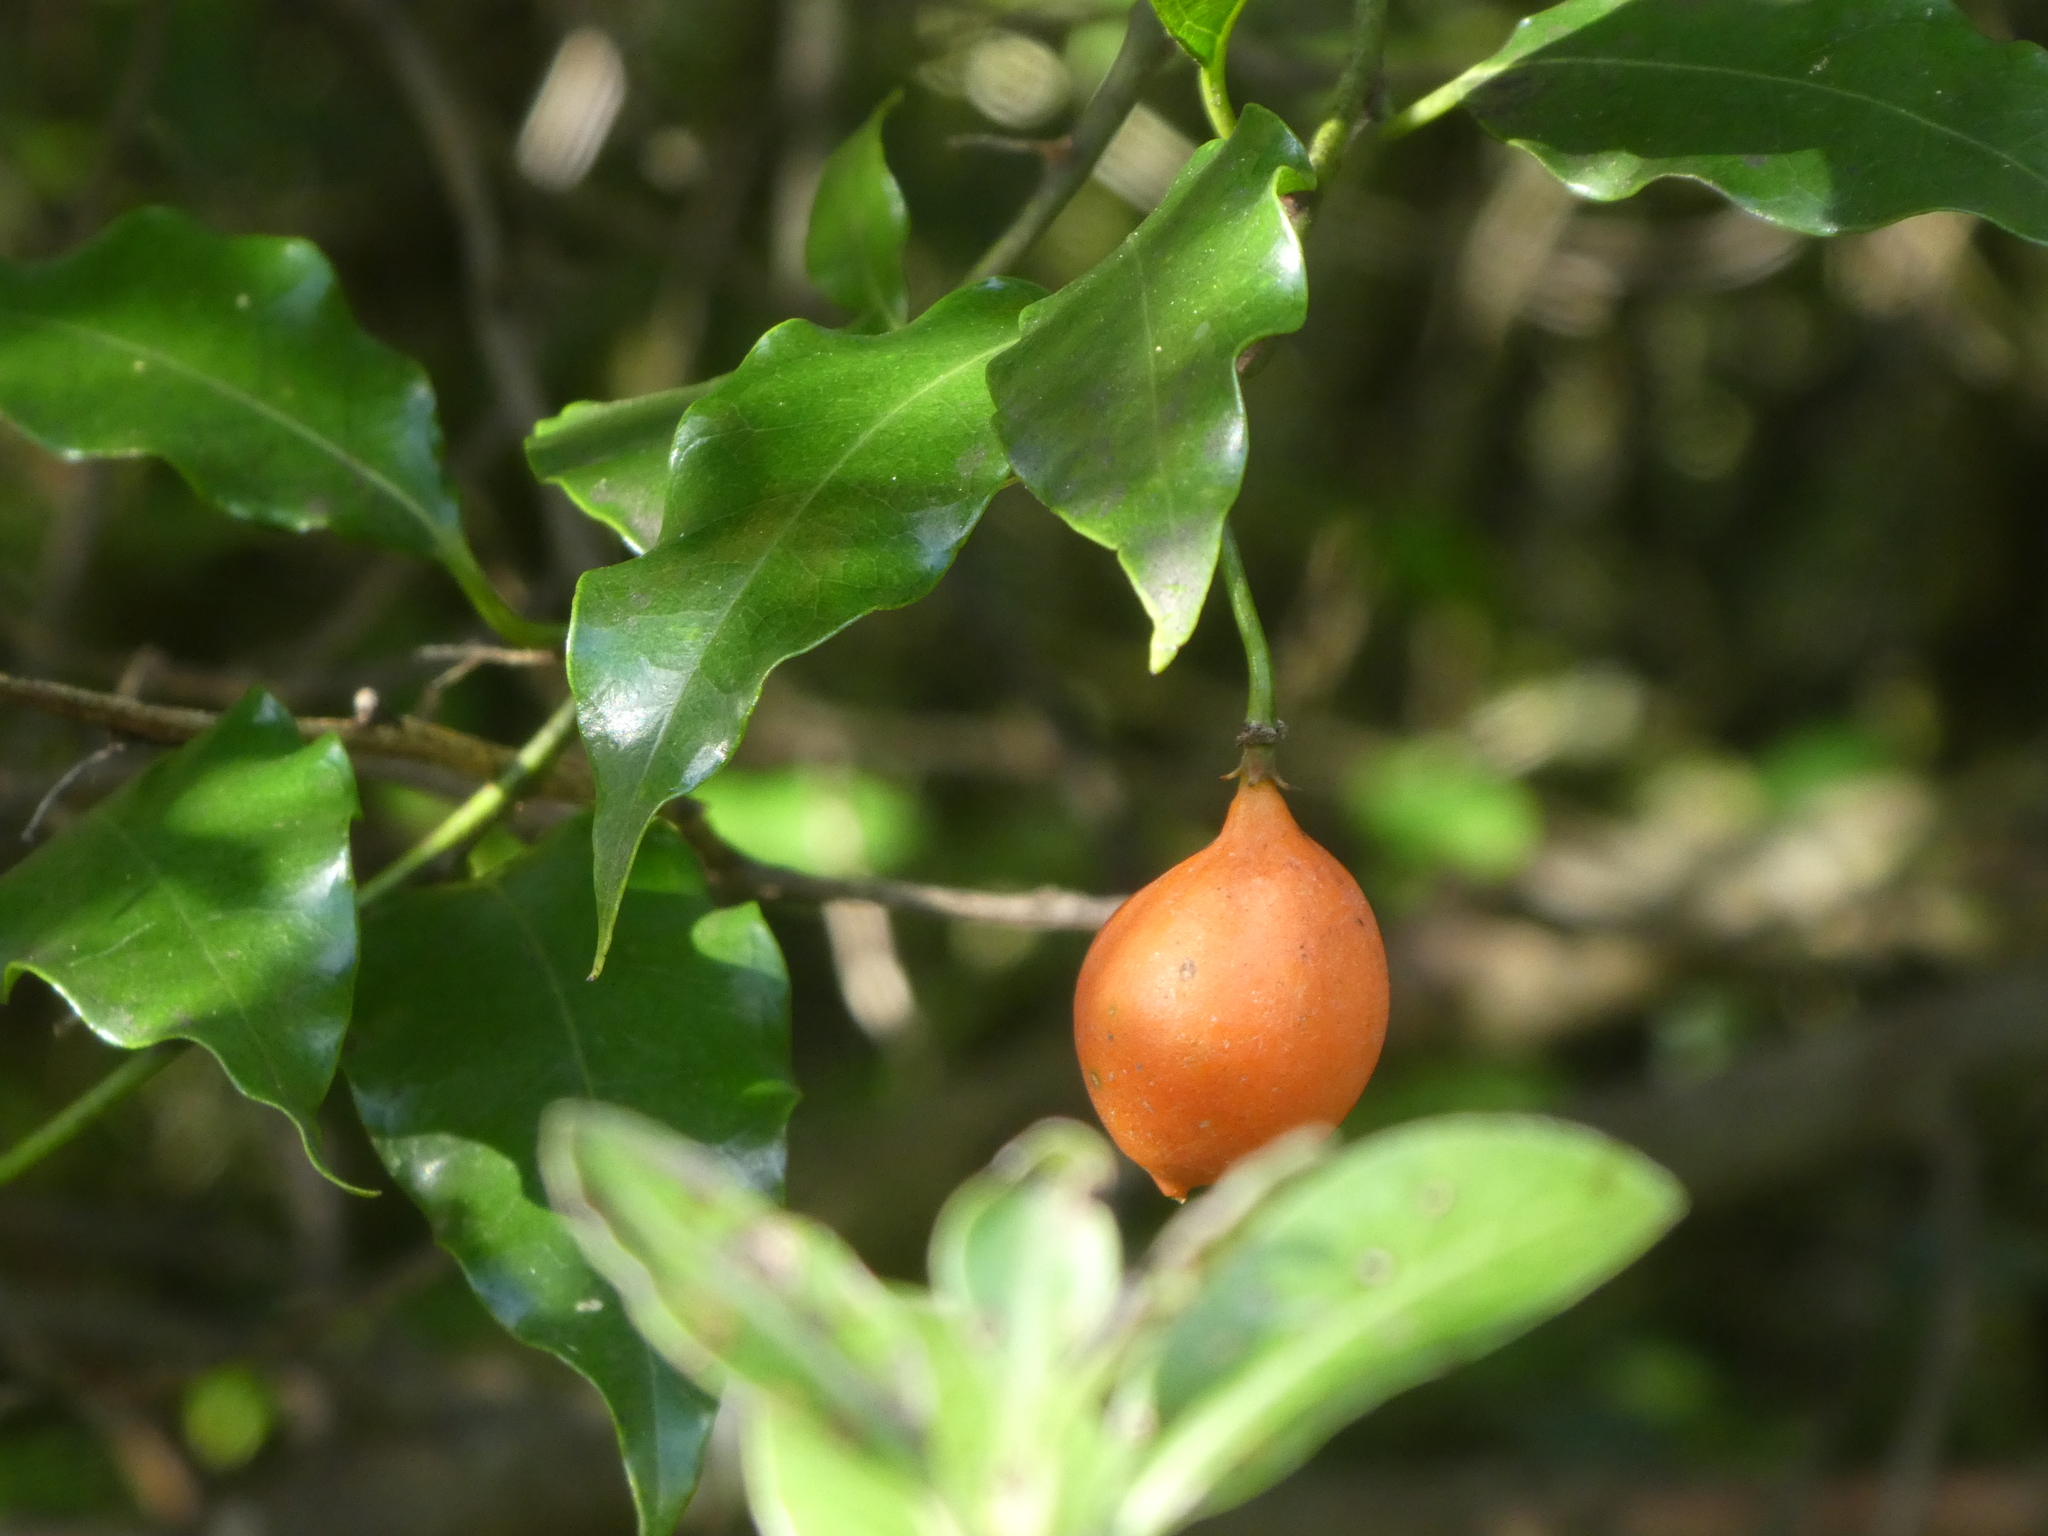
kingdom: Plantae
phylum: Tracheophyta
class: Magnoliopsida
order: Malpighiales
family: Passifloraceae
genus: Passiflora
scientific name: Passiflora tetrandra
